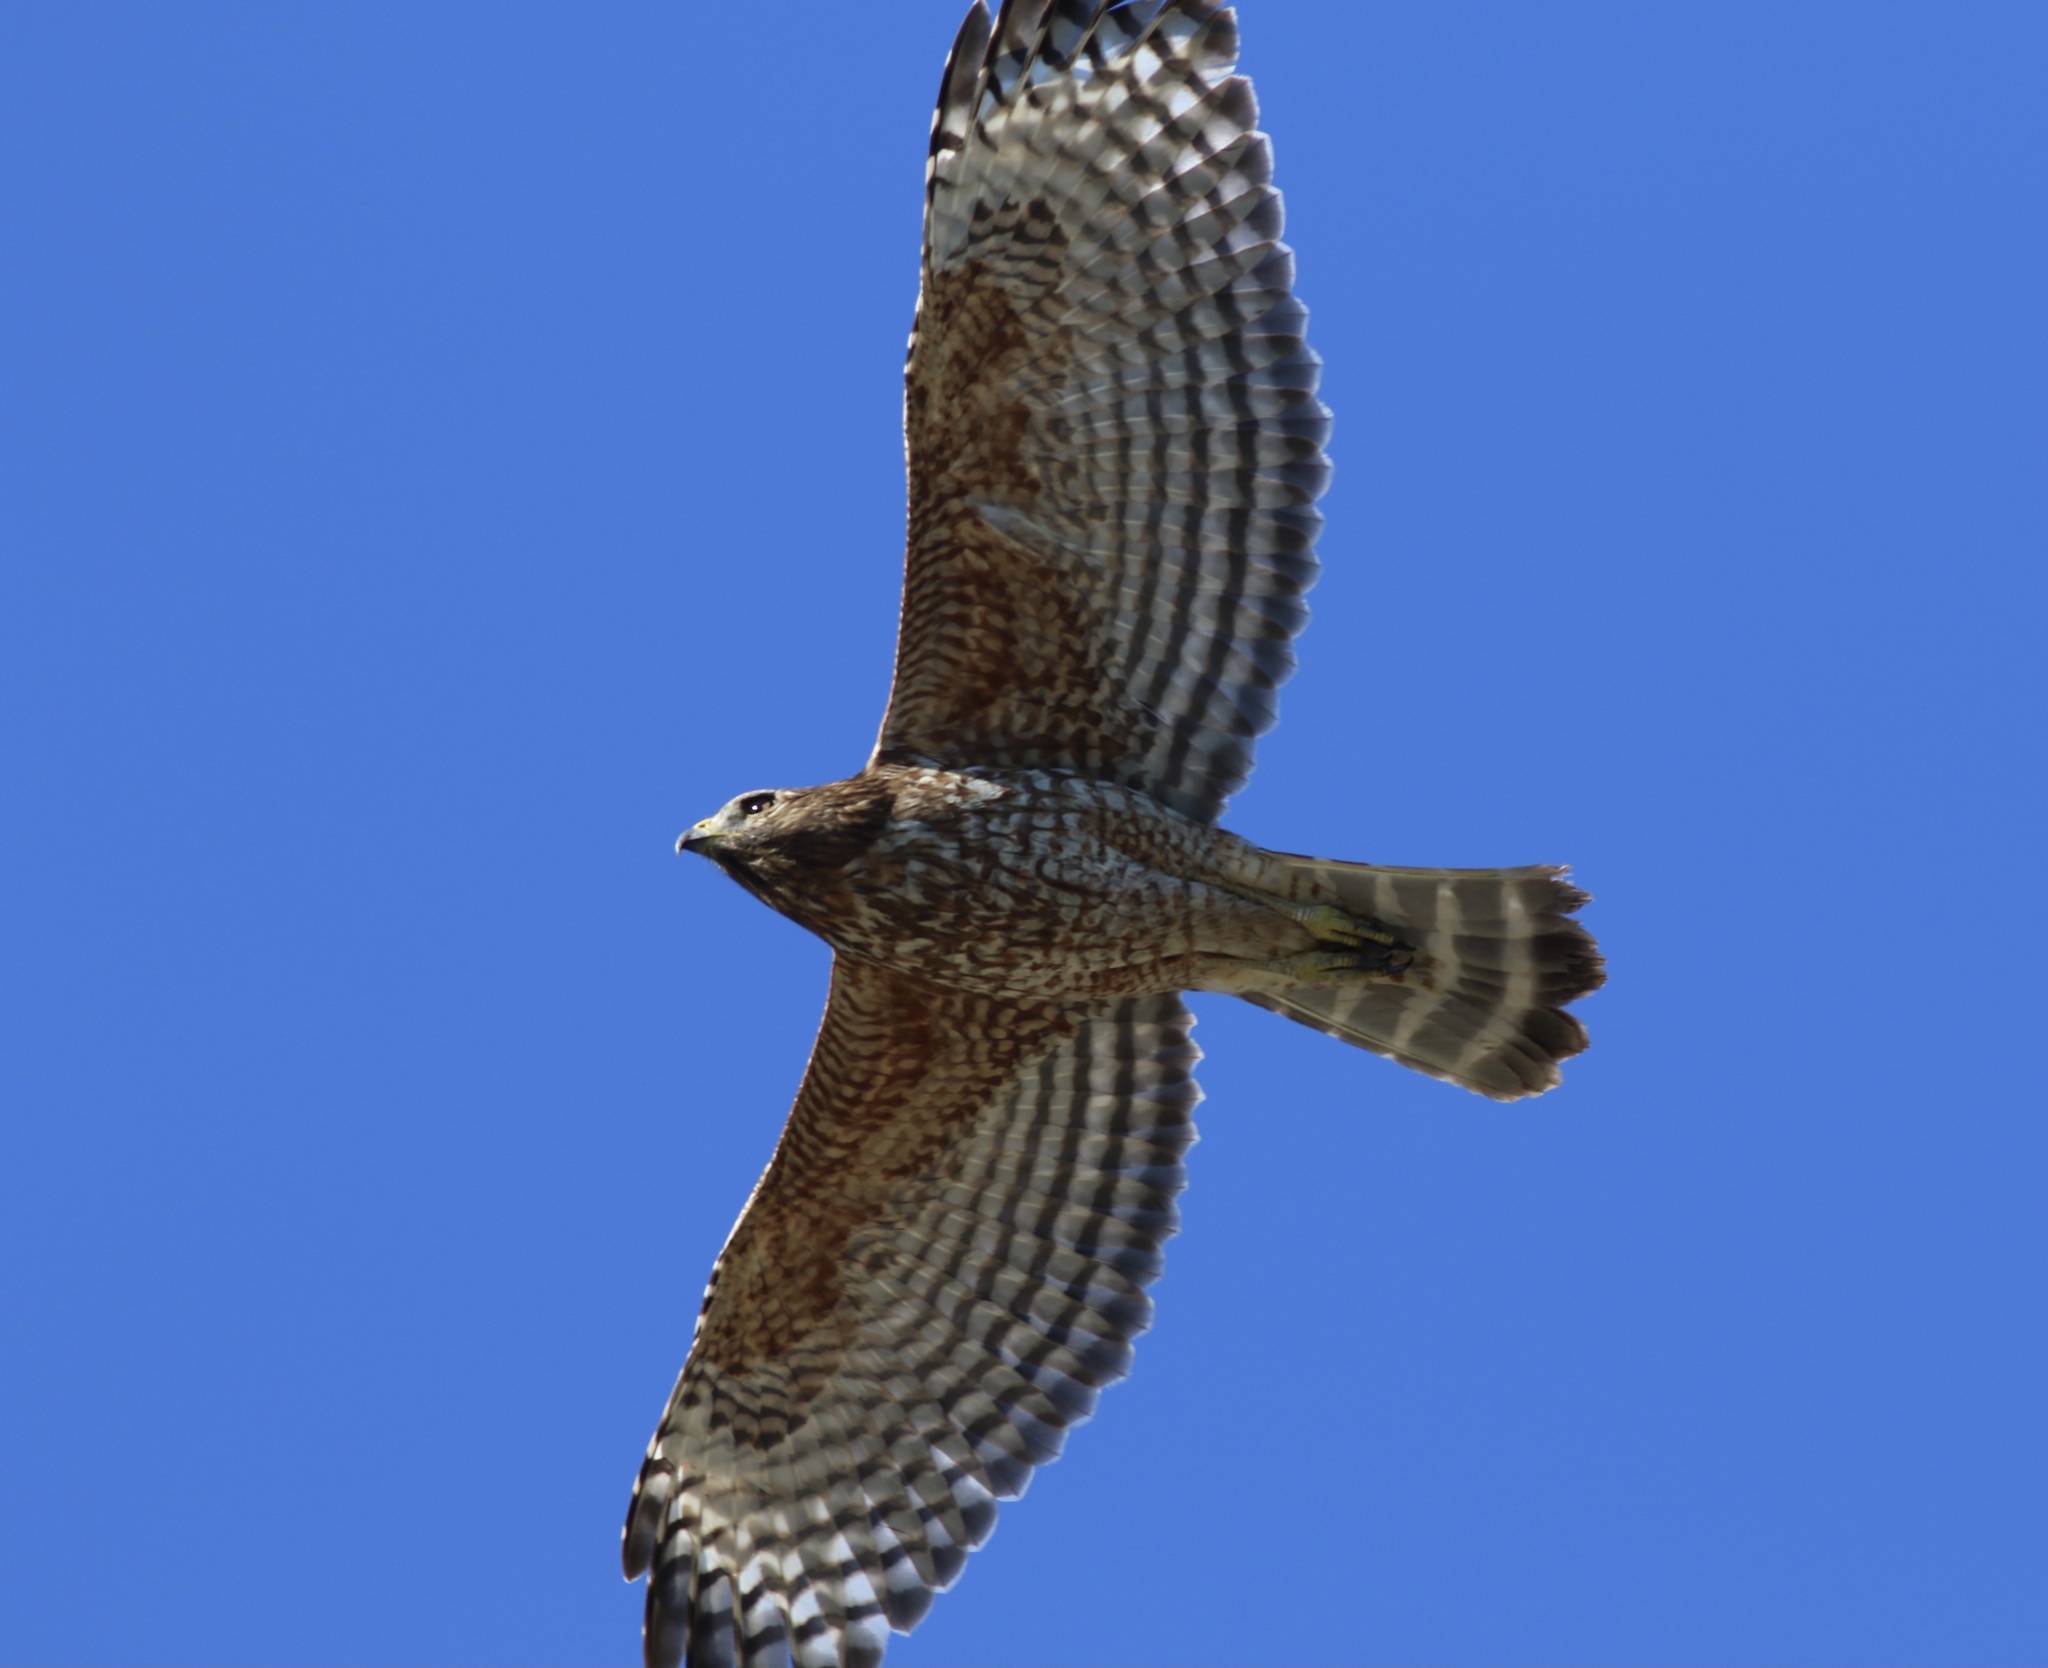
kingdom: Animalia
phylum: Chordata
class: Aves
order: Accipitriformes
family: Accipitridae
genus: Buteo
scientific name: Buteo lineatus
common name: Red-shouldered hawk
